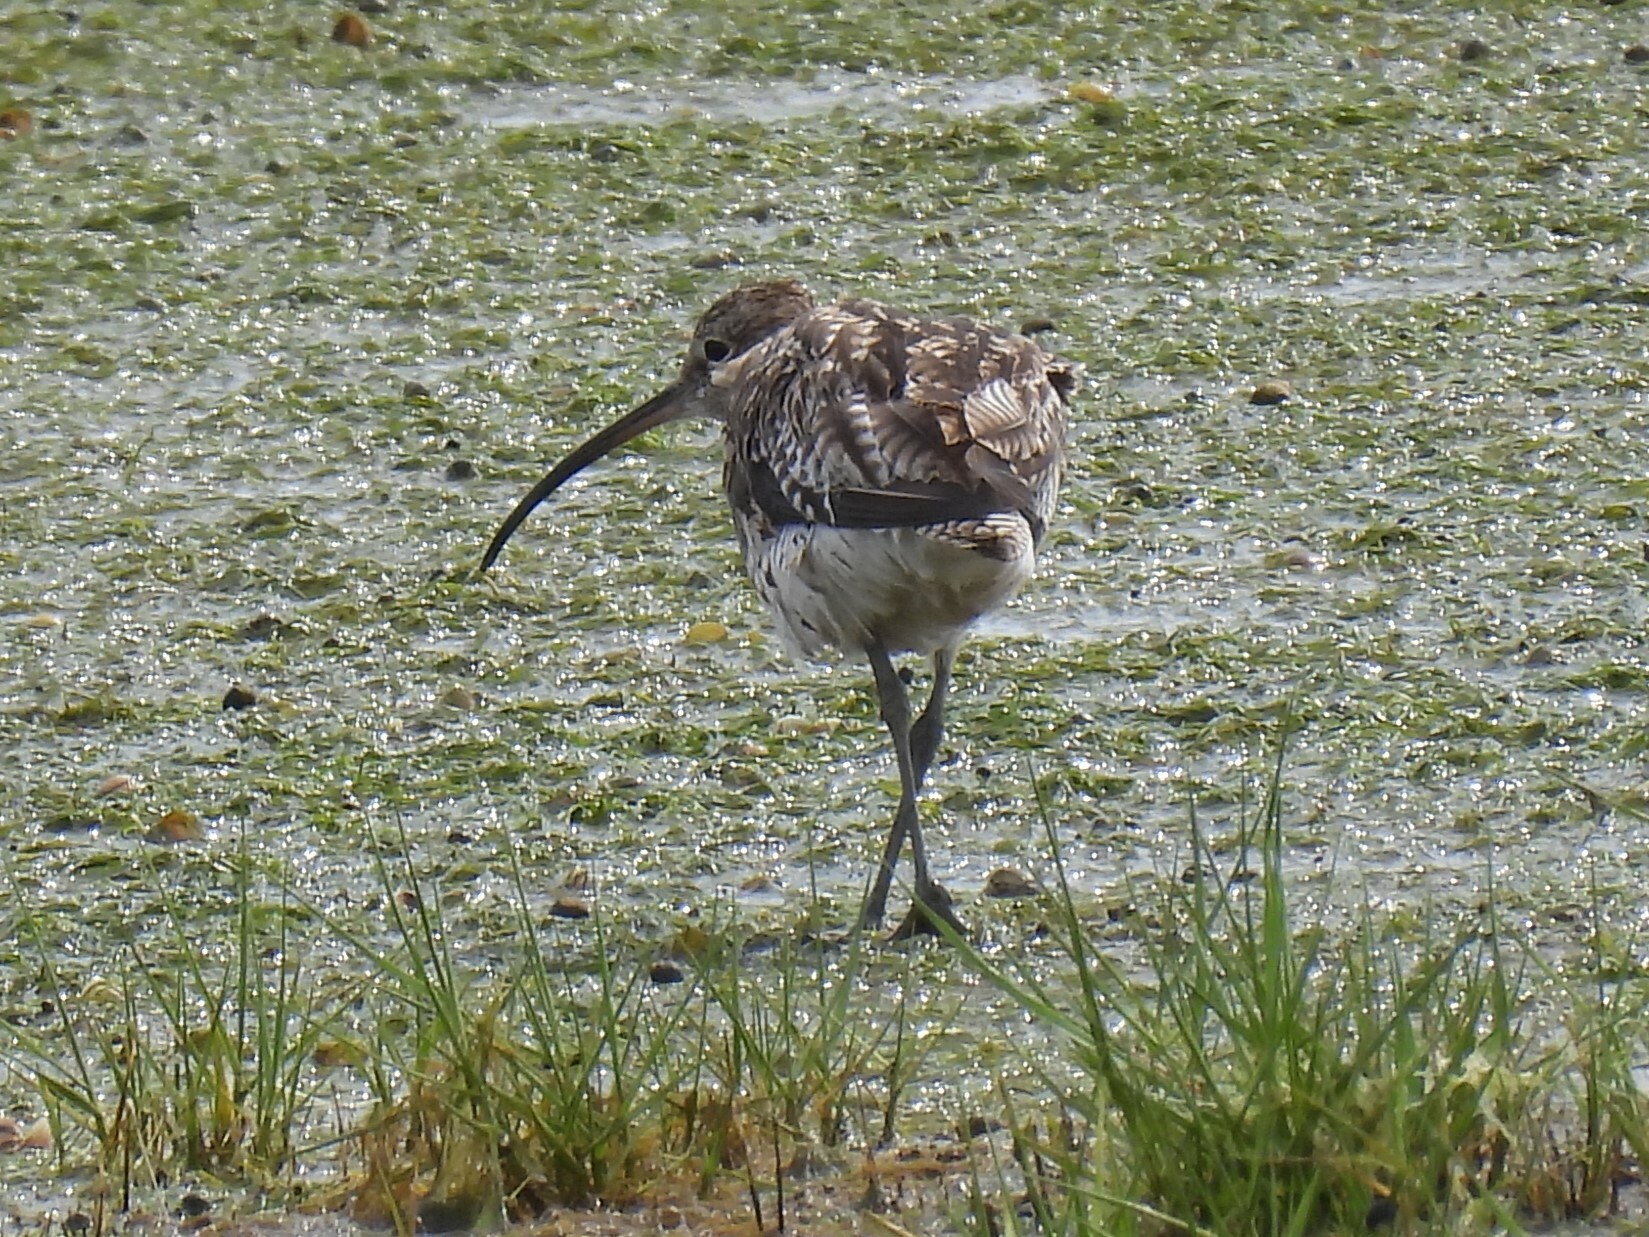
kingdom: Animalia
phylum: Chordata
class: Aves
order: Charadriiformes
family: Scolopacidae
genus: Numenius
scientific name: Numenius arquata
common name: Eurasian curlew
